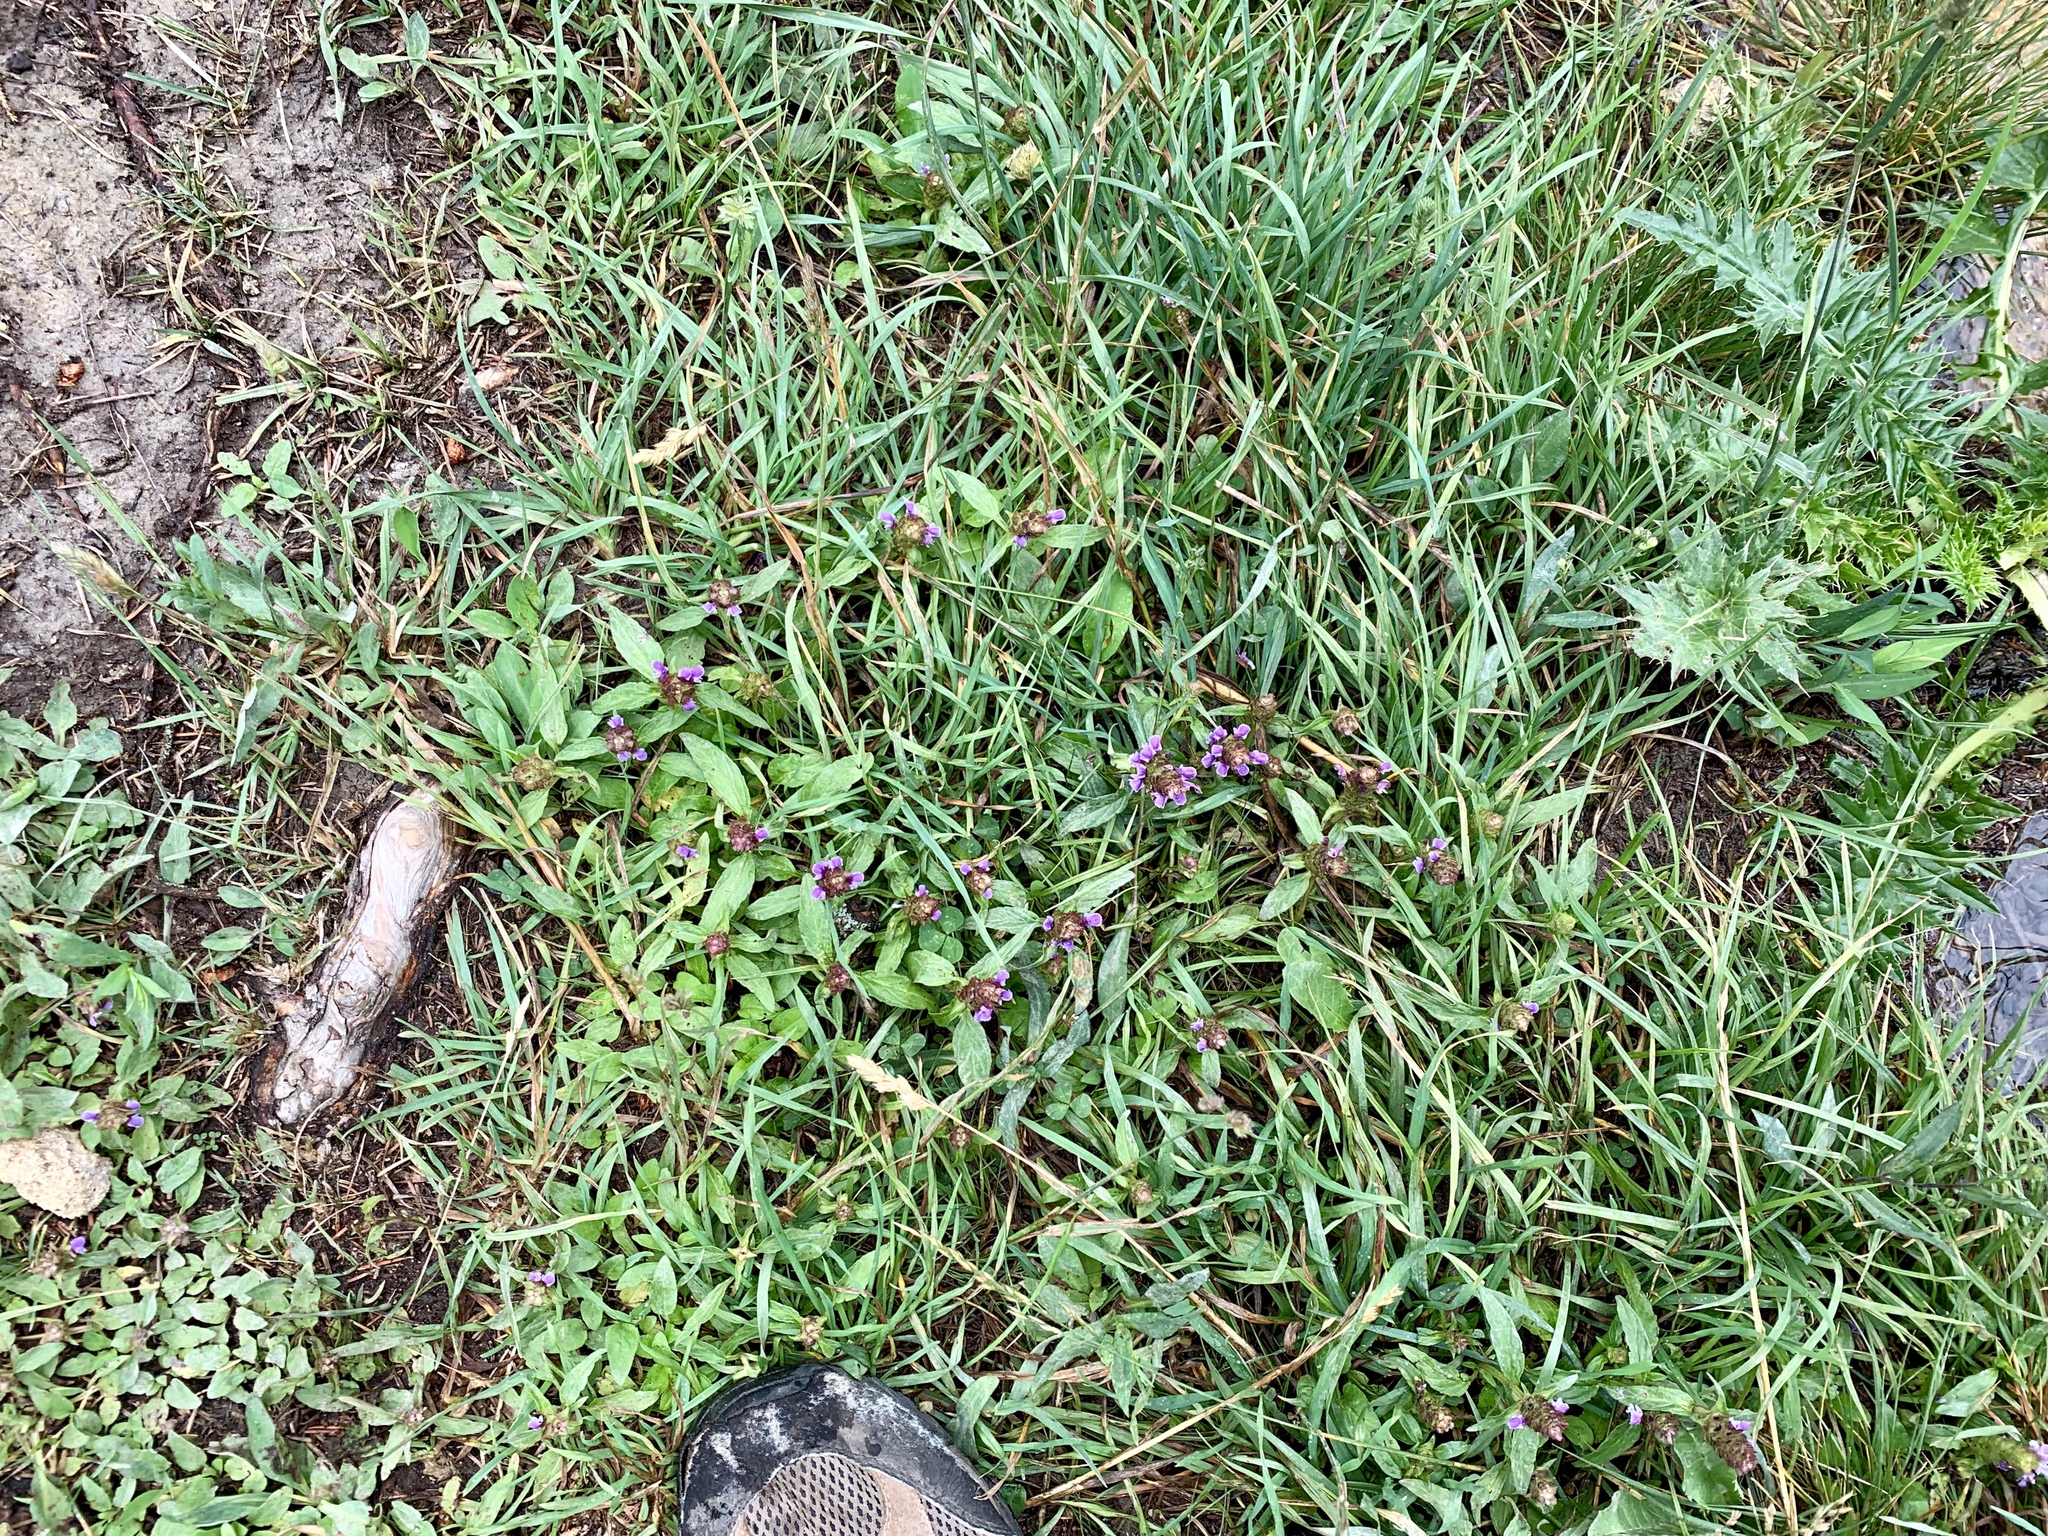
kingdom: Plantae
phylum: Tracheophyta
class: Magnoliopsida
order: Lamiales
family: Lamiaceae
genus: Prunella
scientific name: Prunella vulgaris
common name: Heal-all
